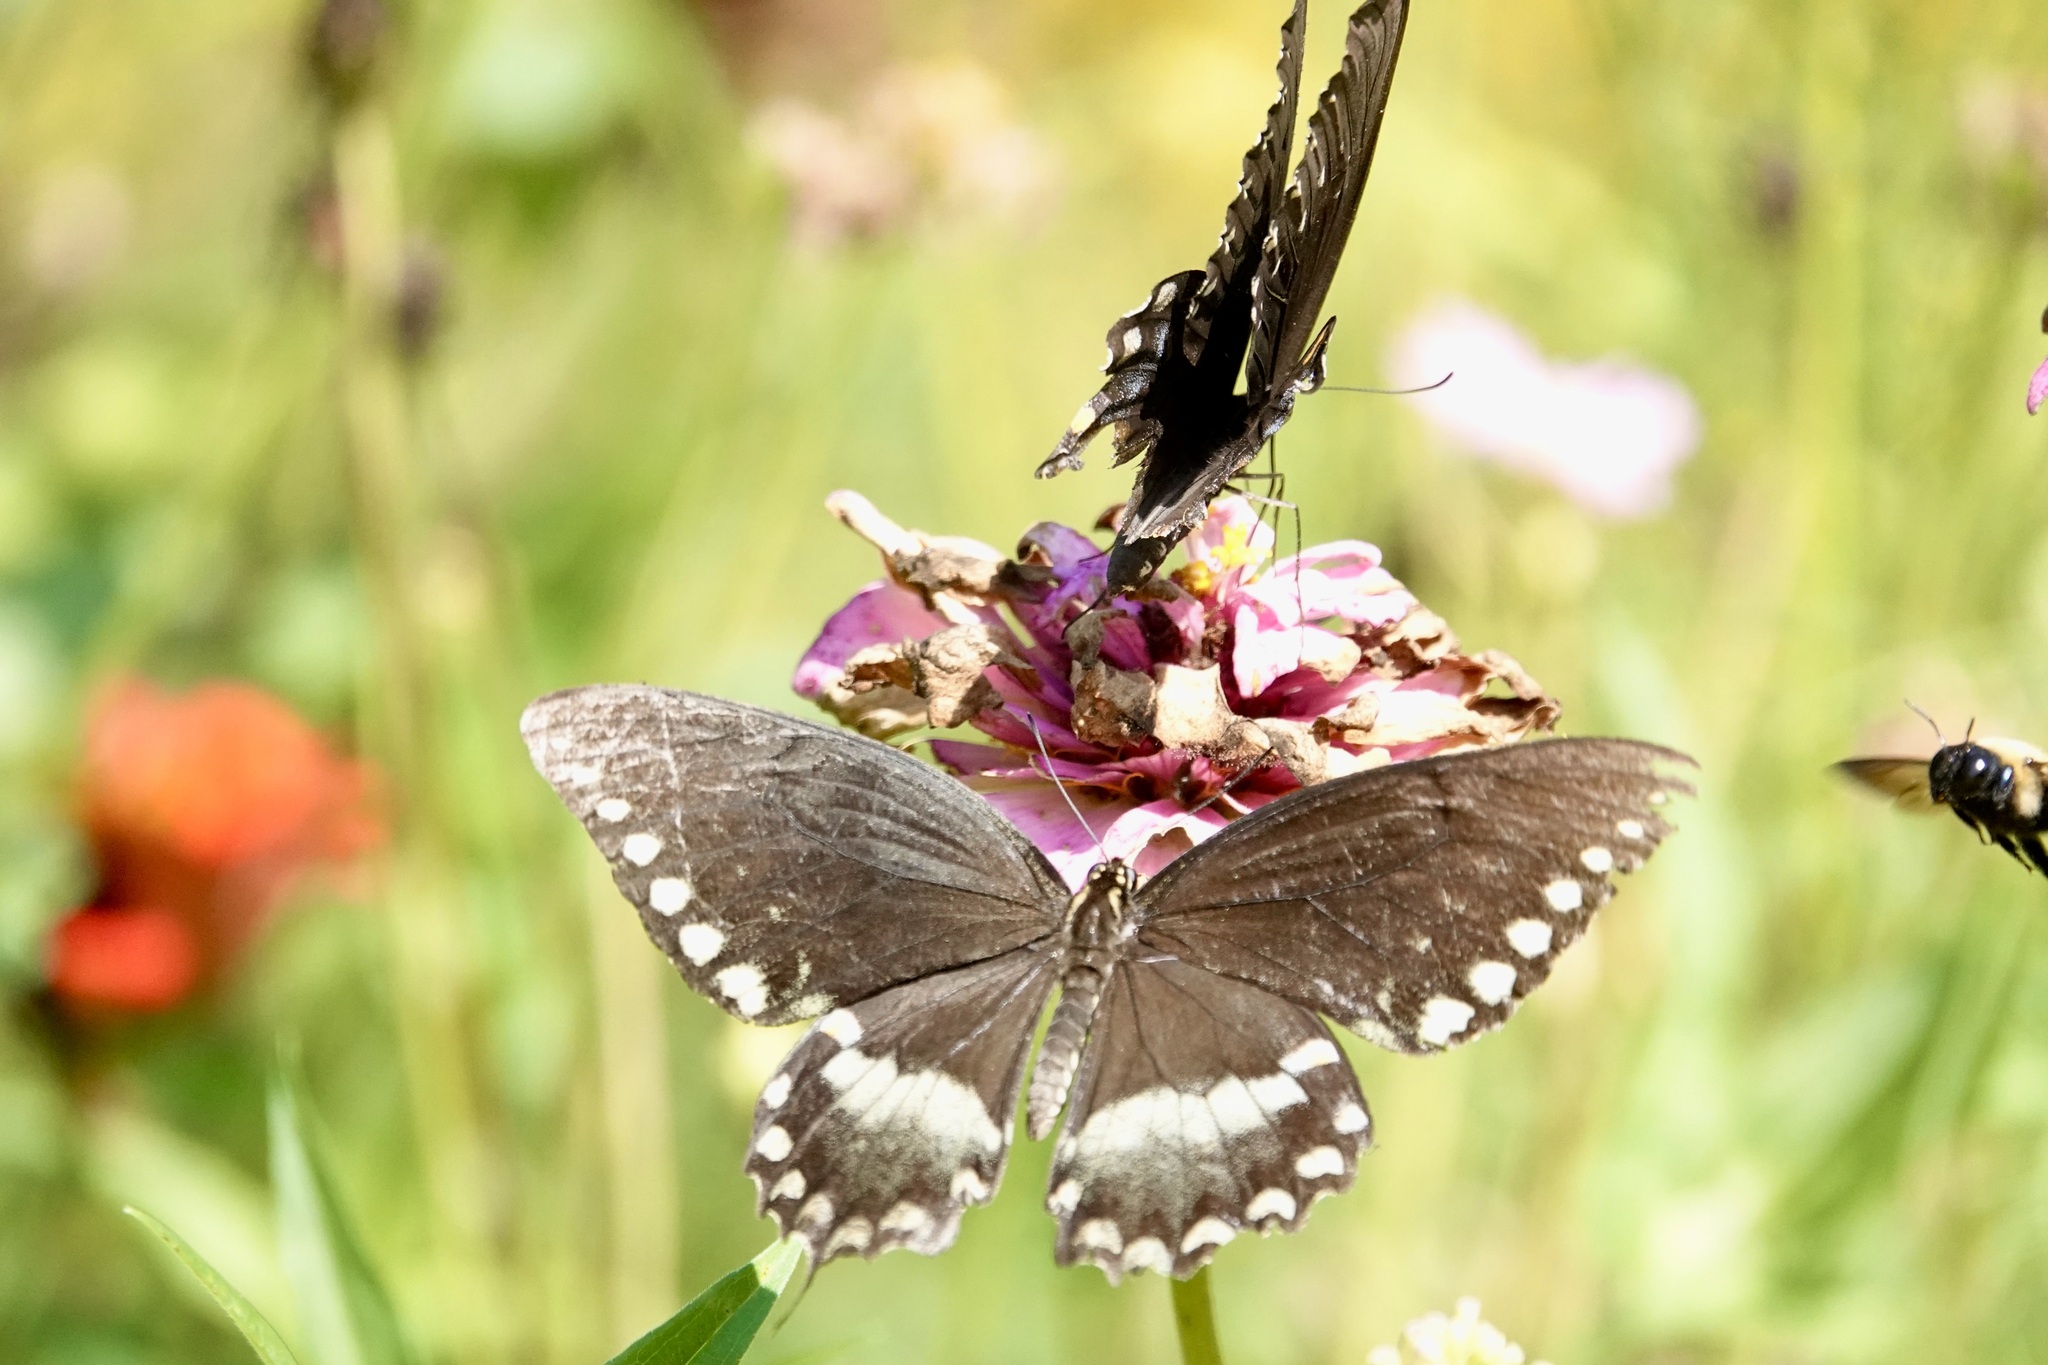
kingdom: Animalia
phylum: Arthropoda
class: Insecta
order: Lepidoptera
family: Papilionidae
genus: Papilio
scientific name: Papilio troilus
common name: Spicebush swallowtail
